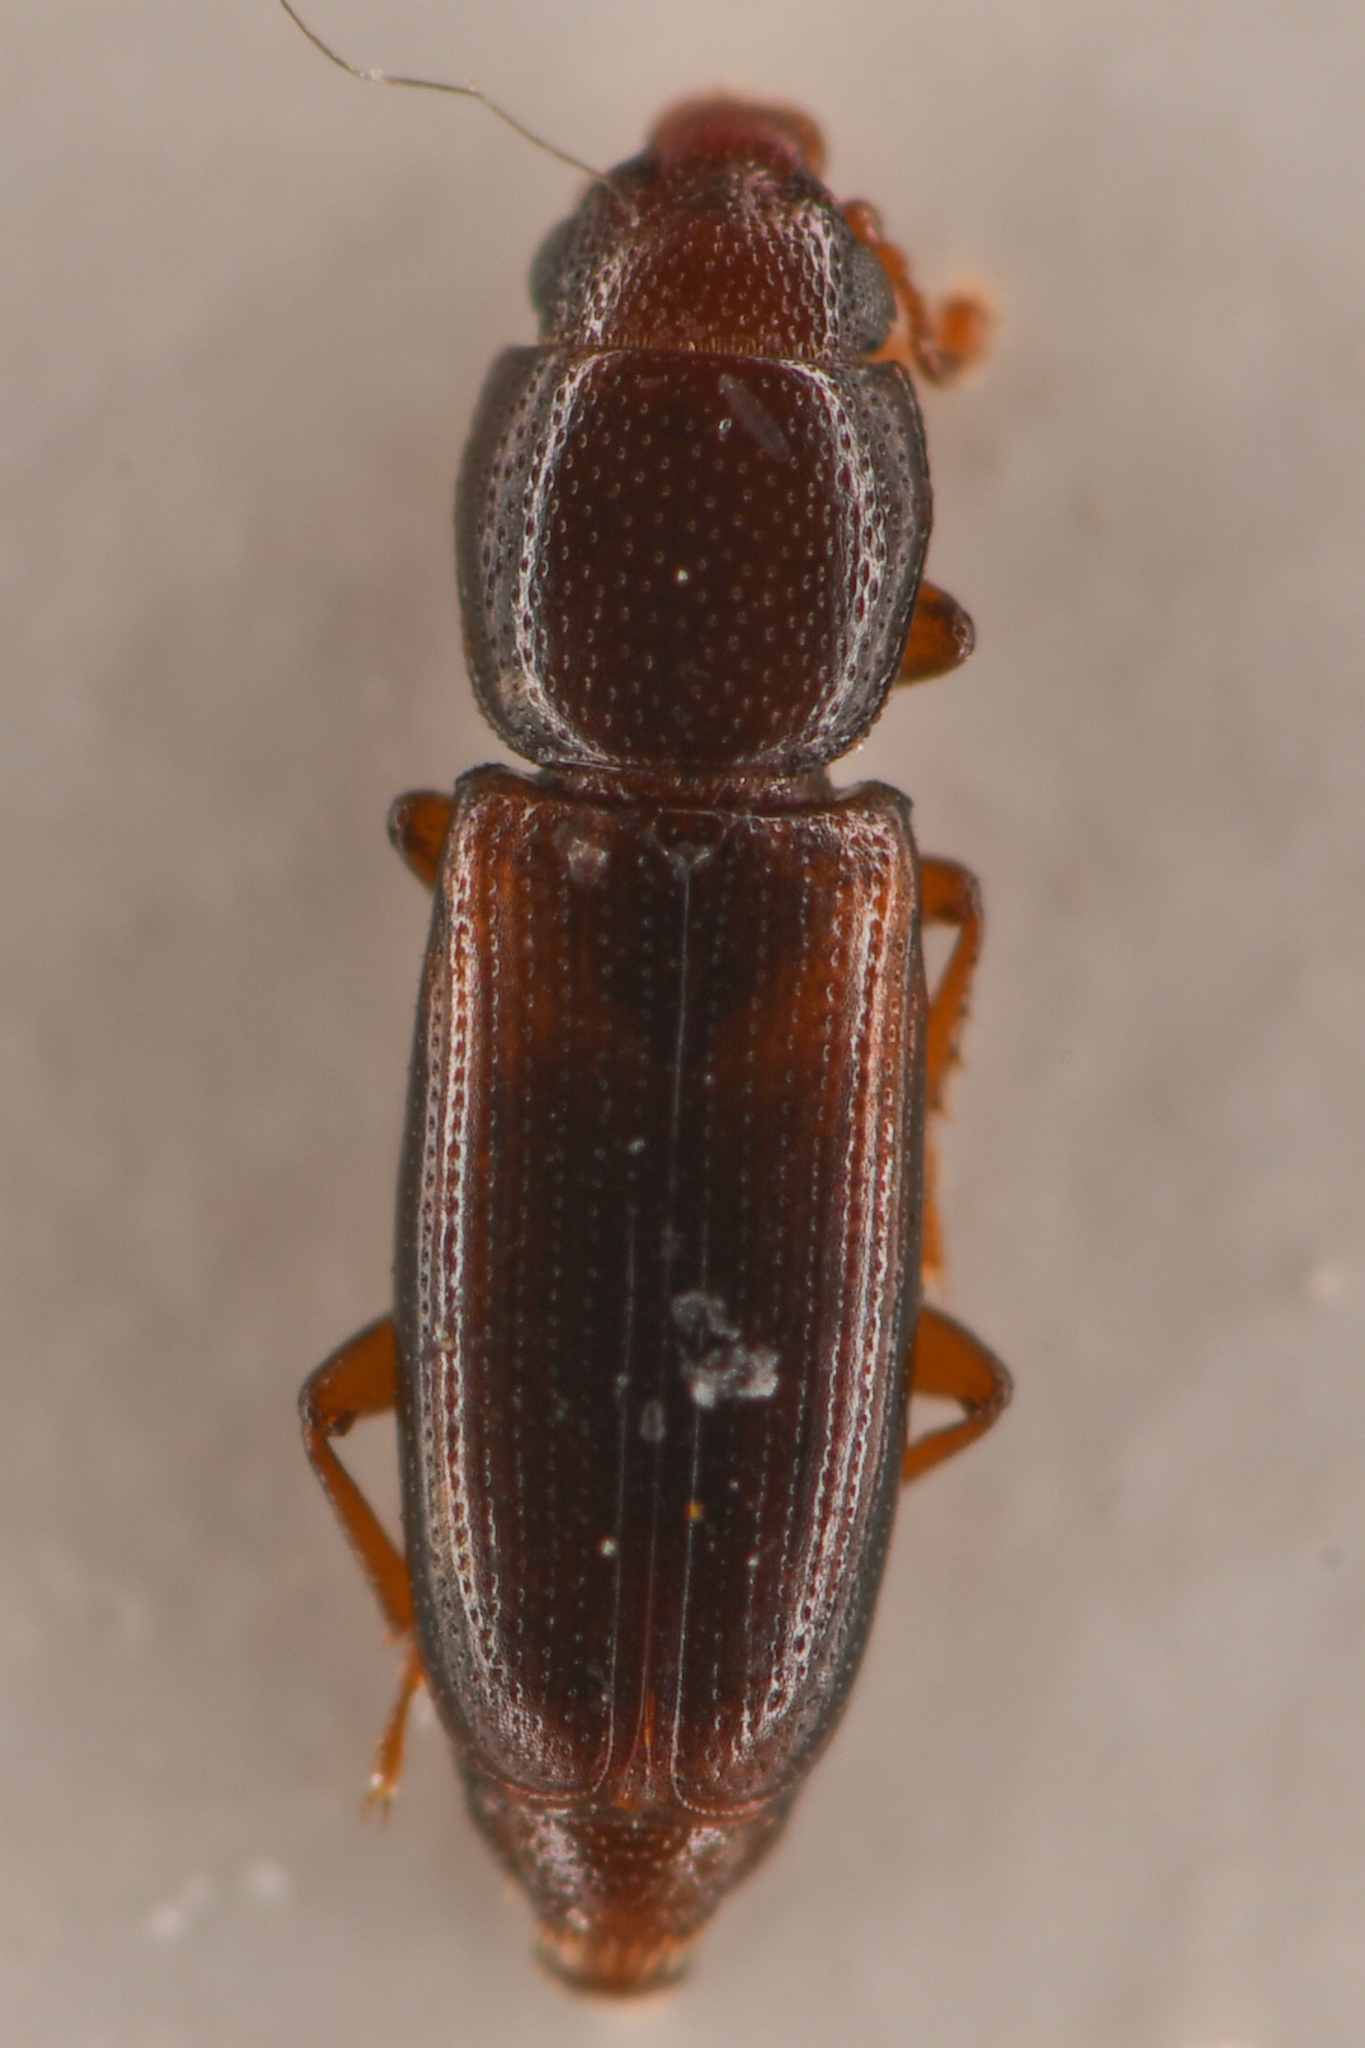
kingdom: Animalia
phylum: Arthropoda
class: Insecta
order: Coleoptera
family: Monotomidae
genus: Rhizophagus
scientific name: Rhizophagus minutus
